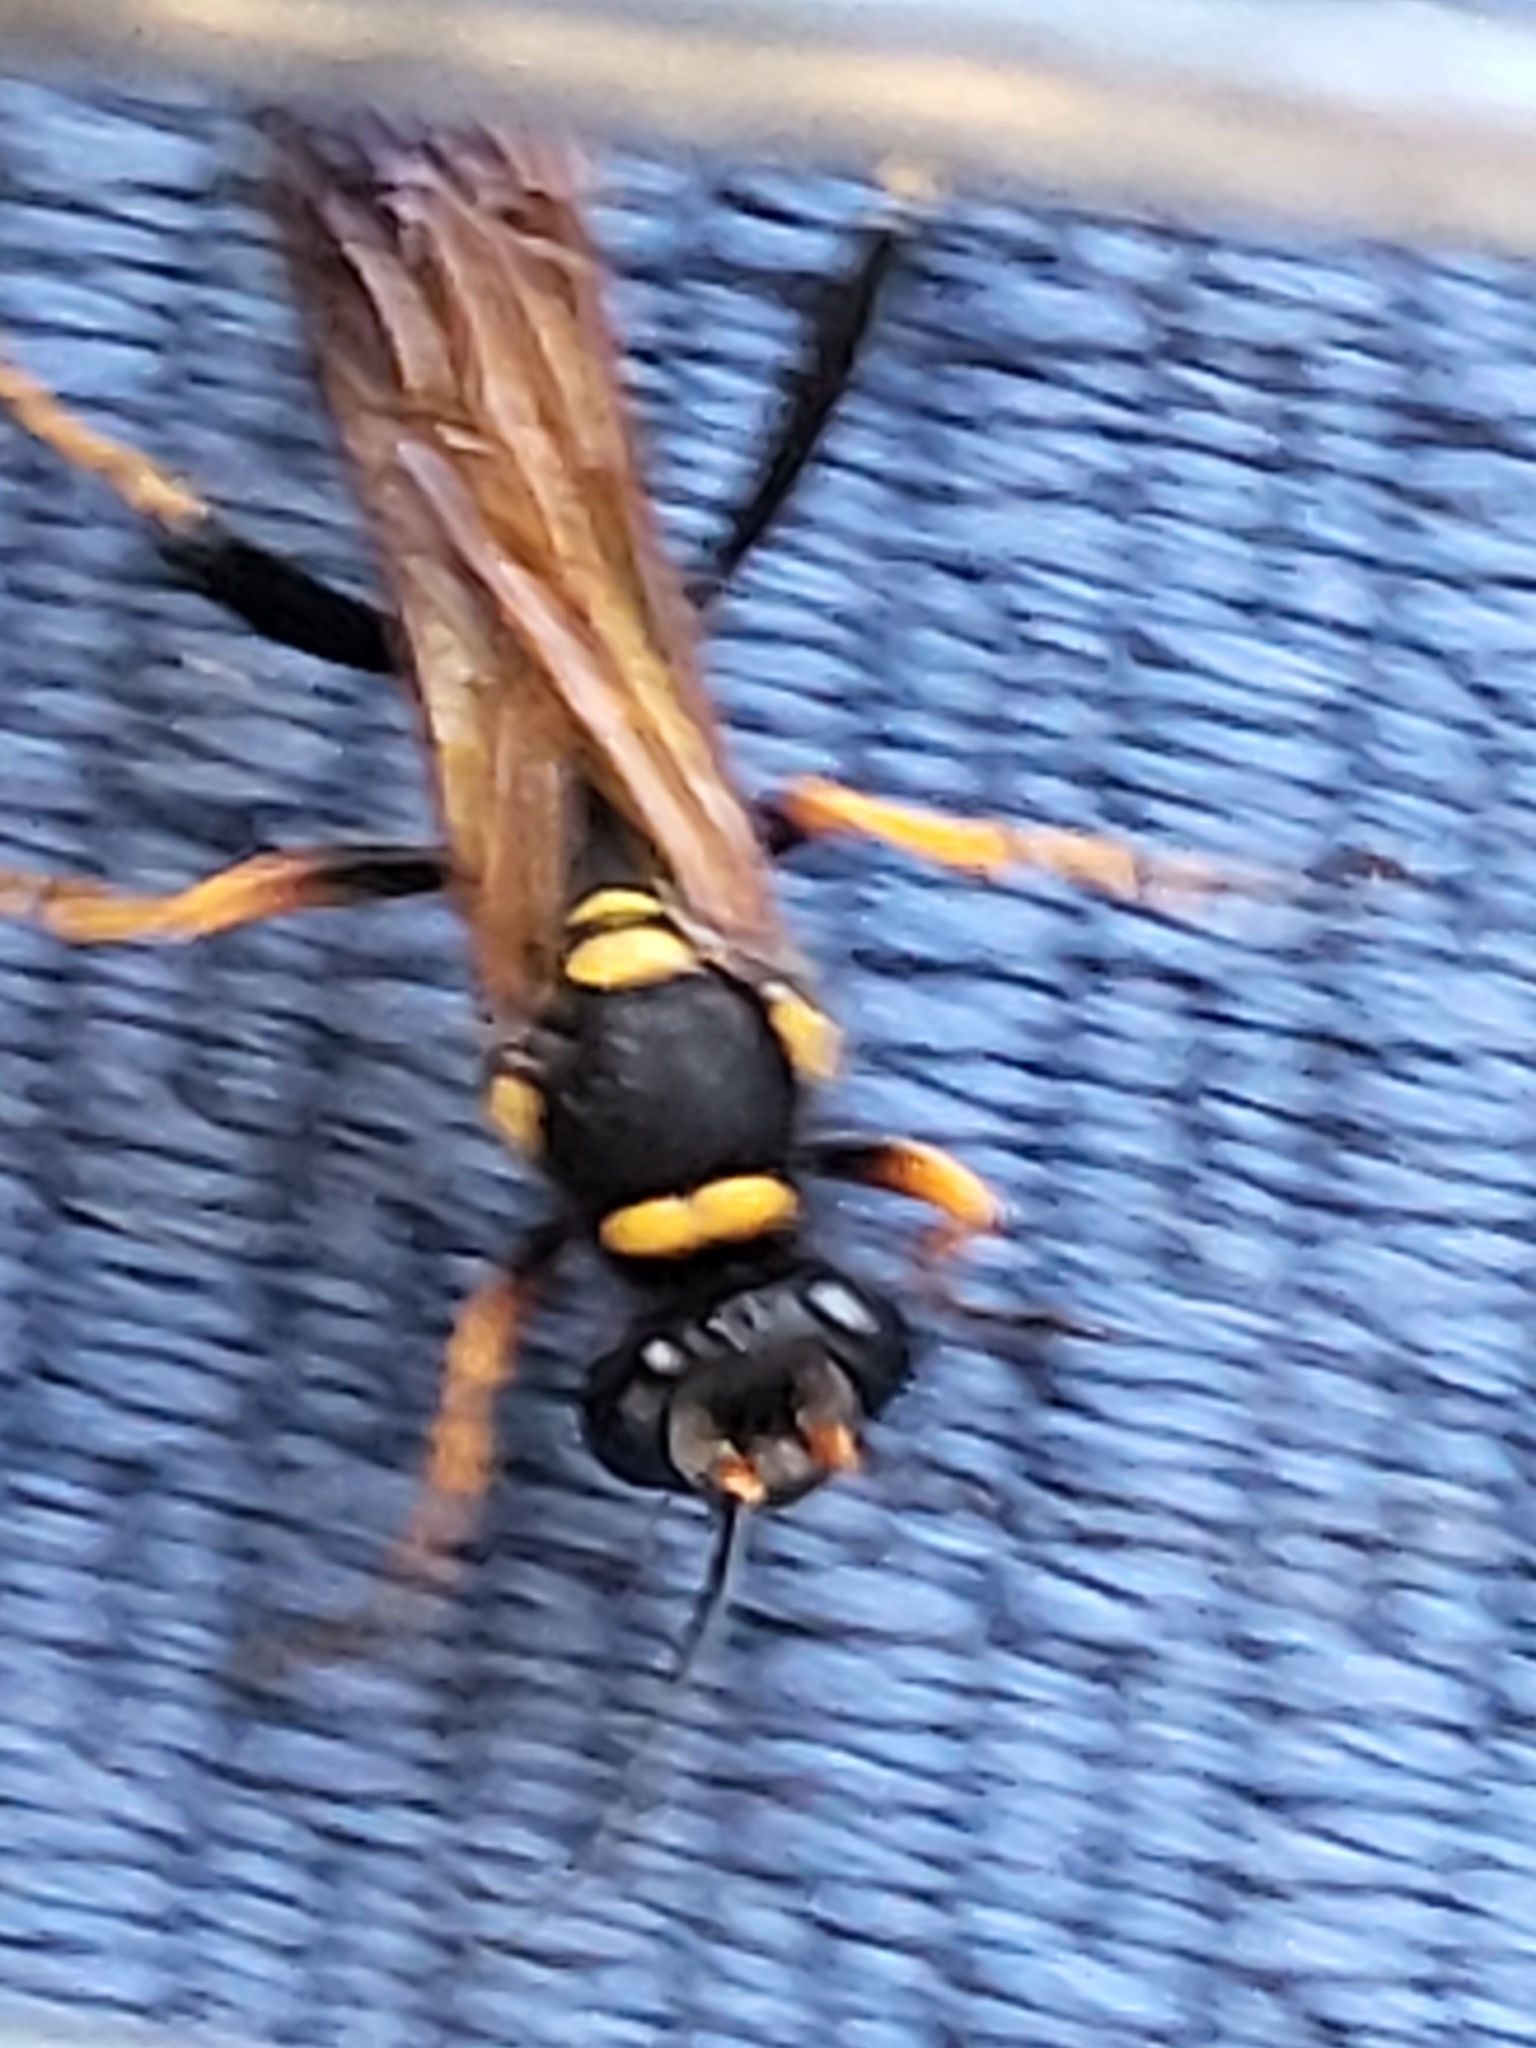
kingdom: Animalia
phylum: Arthropoda
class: Insecta
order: Hymenoptera
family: Sphecidae
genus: Sceliphron
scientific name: Sceliphron caementarium
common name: Mud dauber
